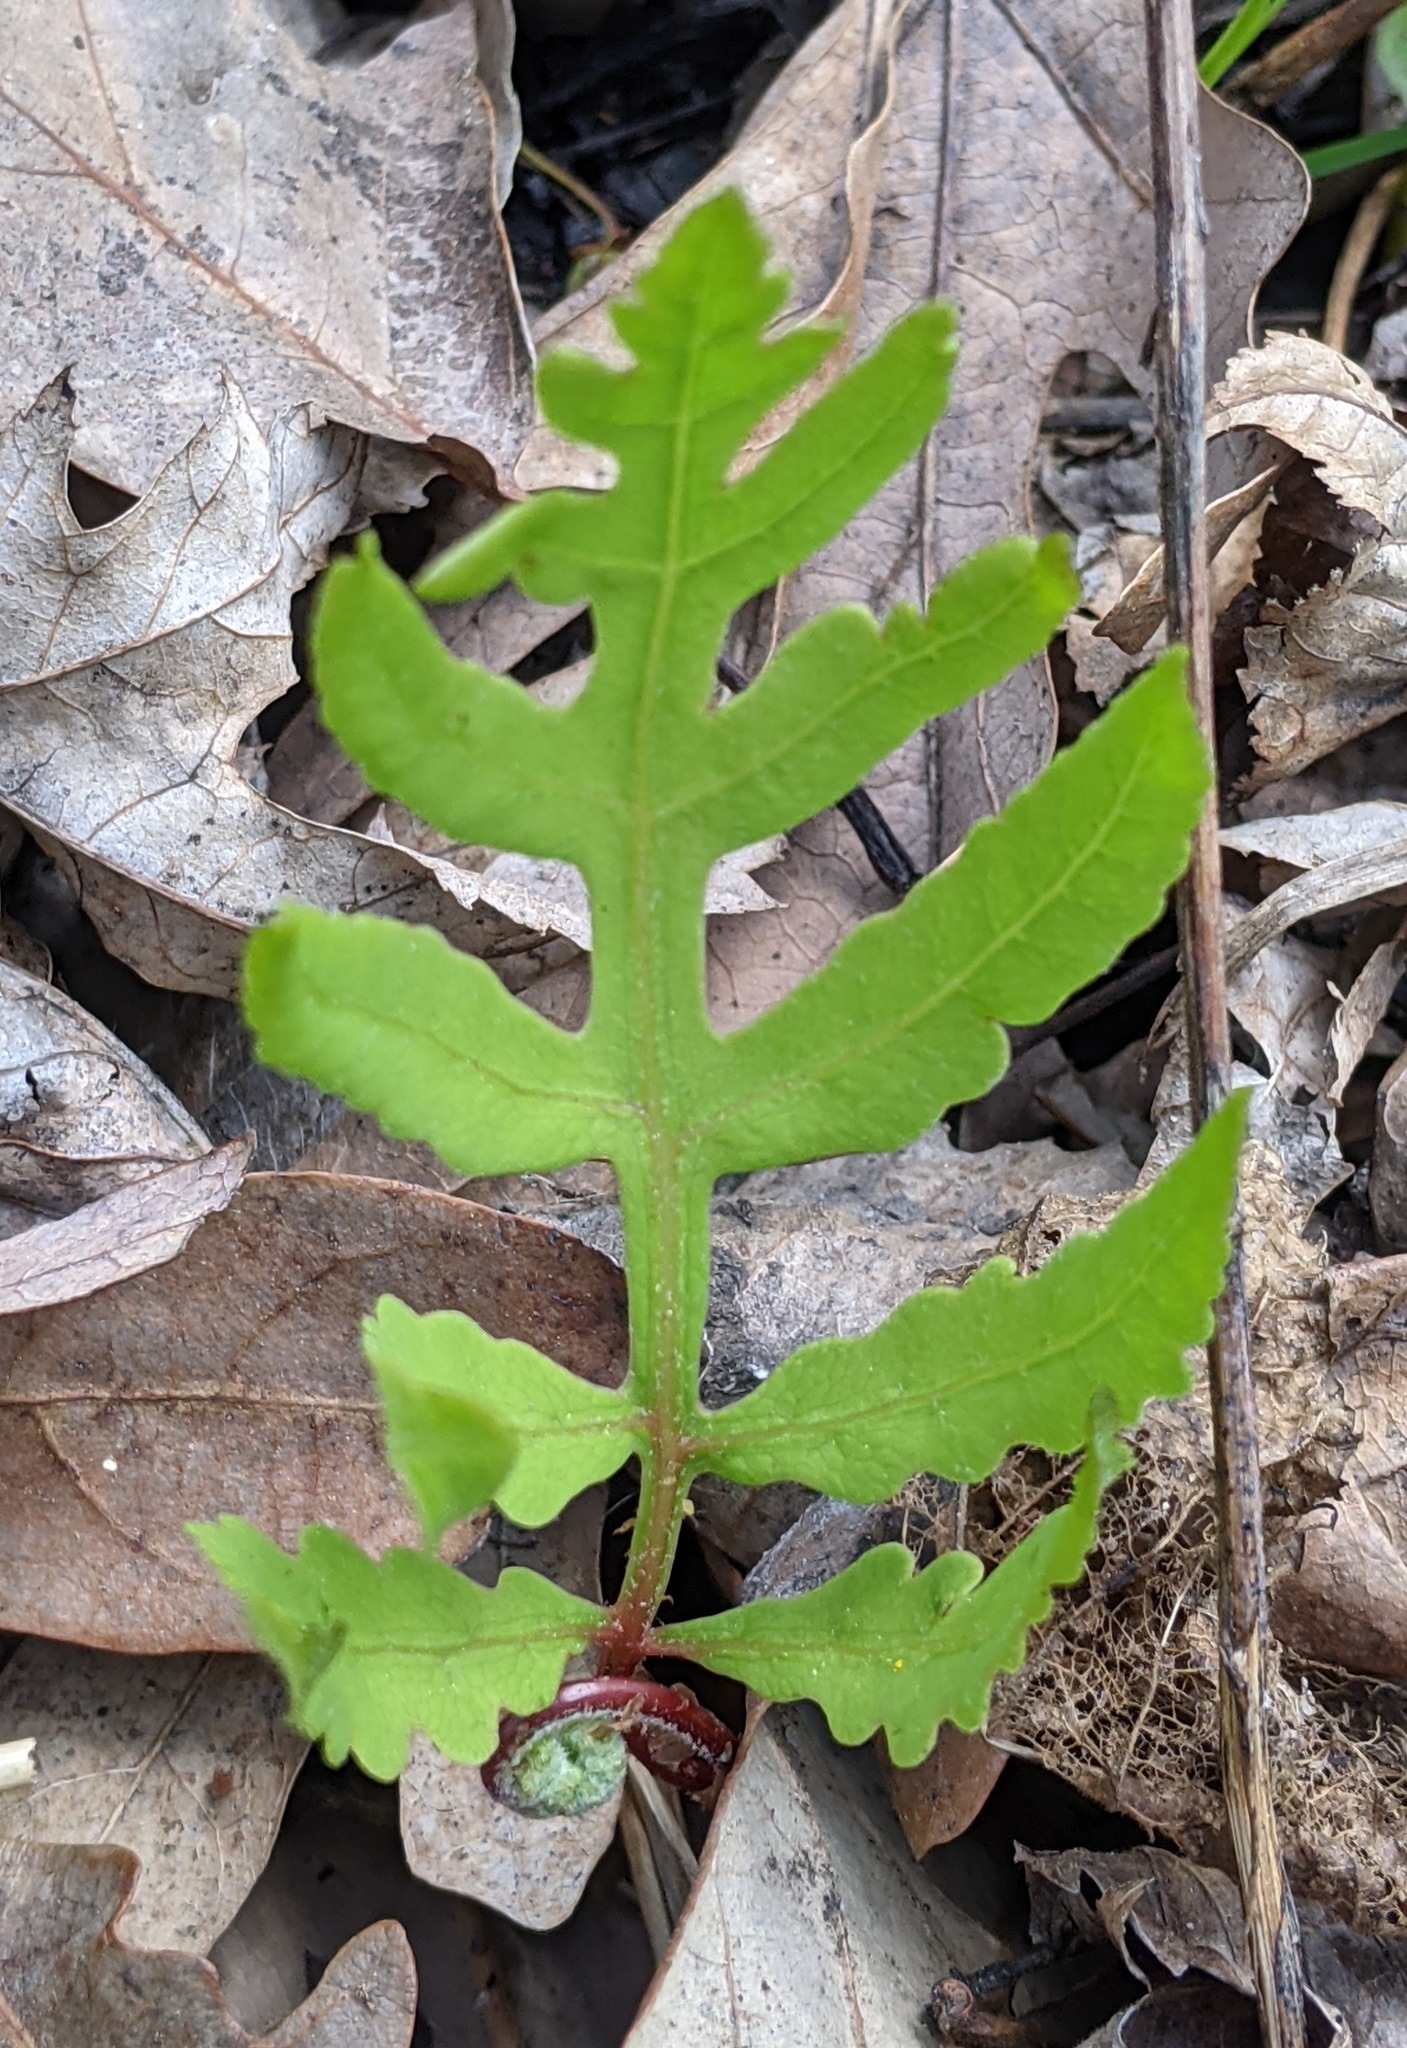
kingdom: Plantae
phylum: Tracheophyta
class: Polypodiopsida
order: Polypodiales
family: Onocleaceae
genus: Onoclea
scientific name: Onoclea sensibilis
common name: Sensitive fern
